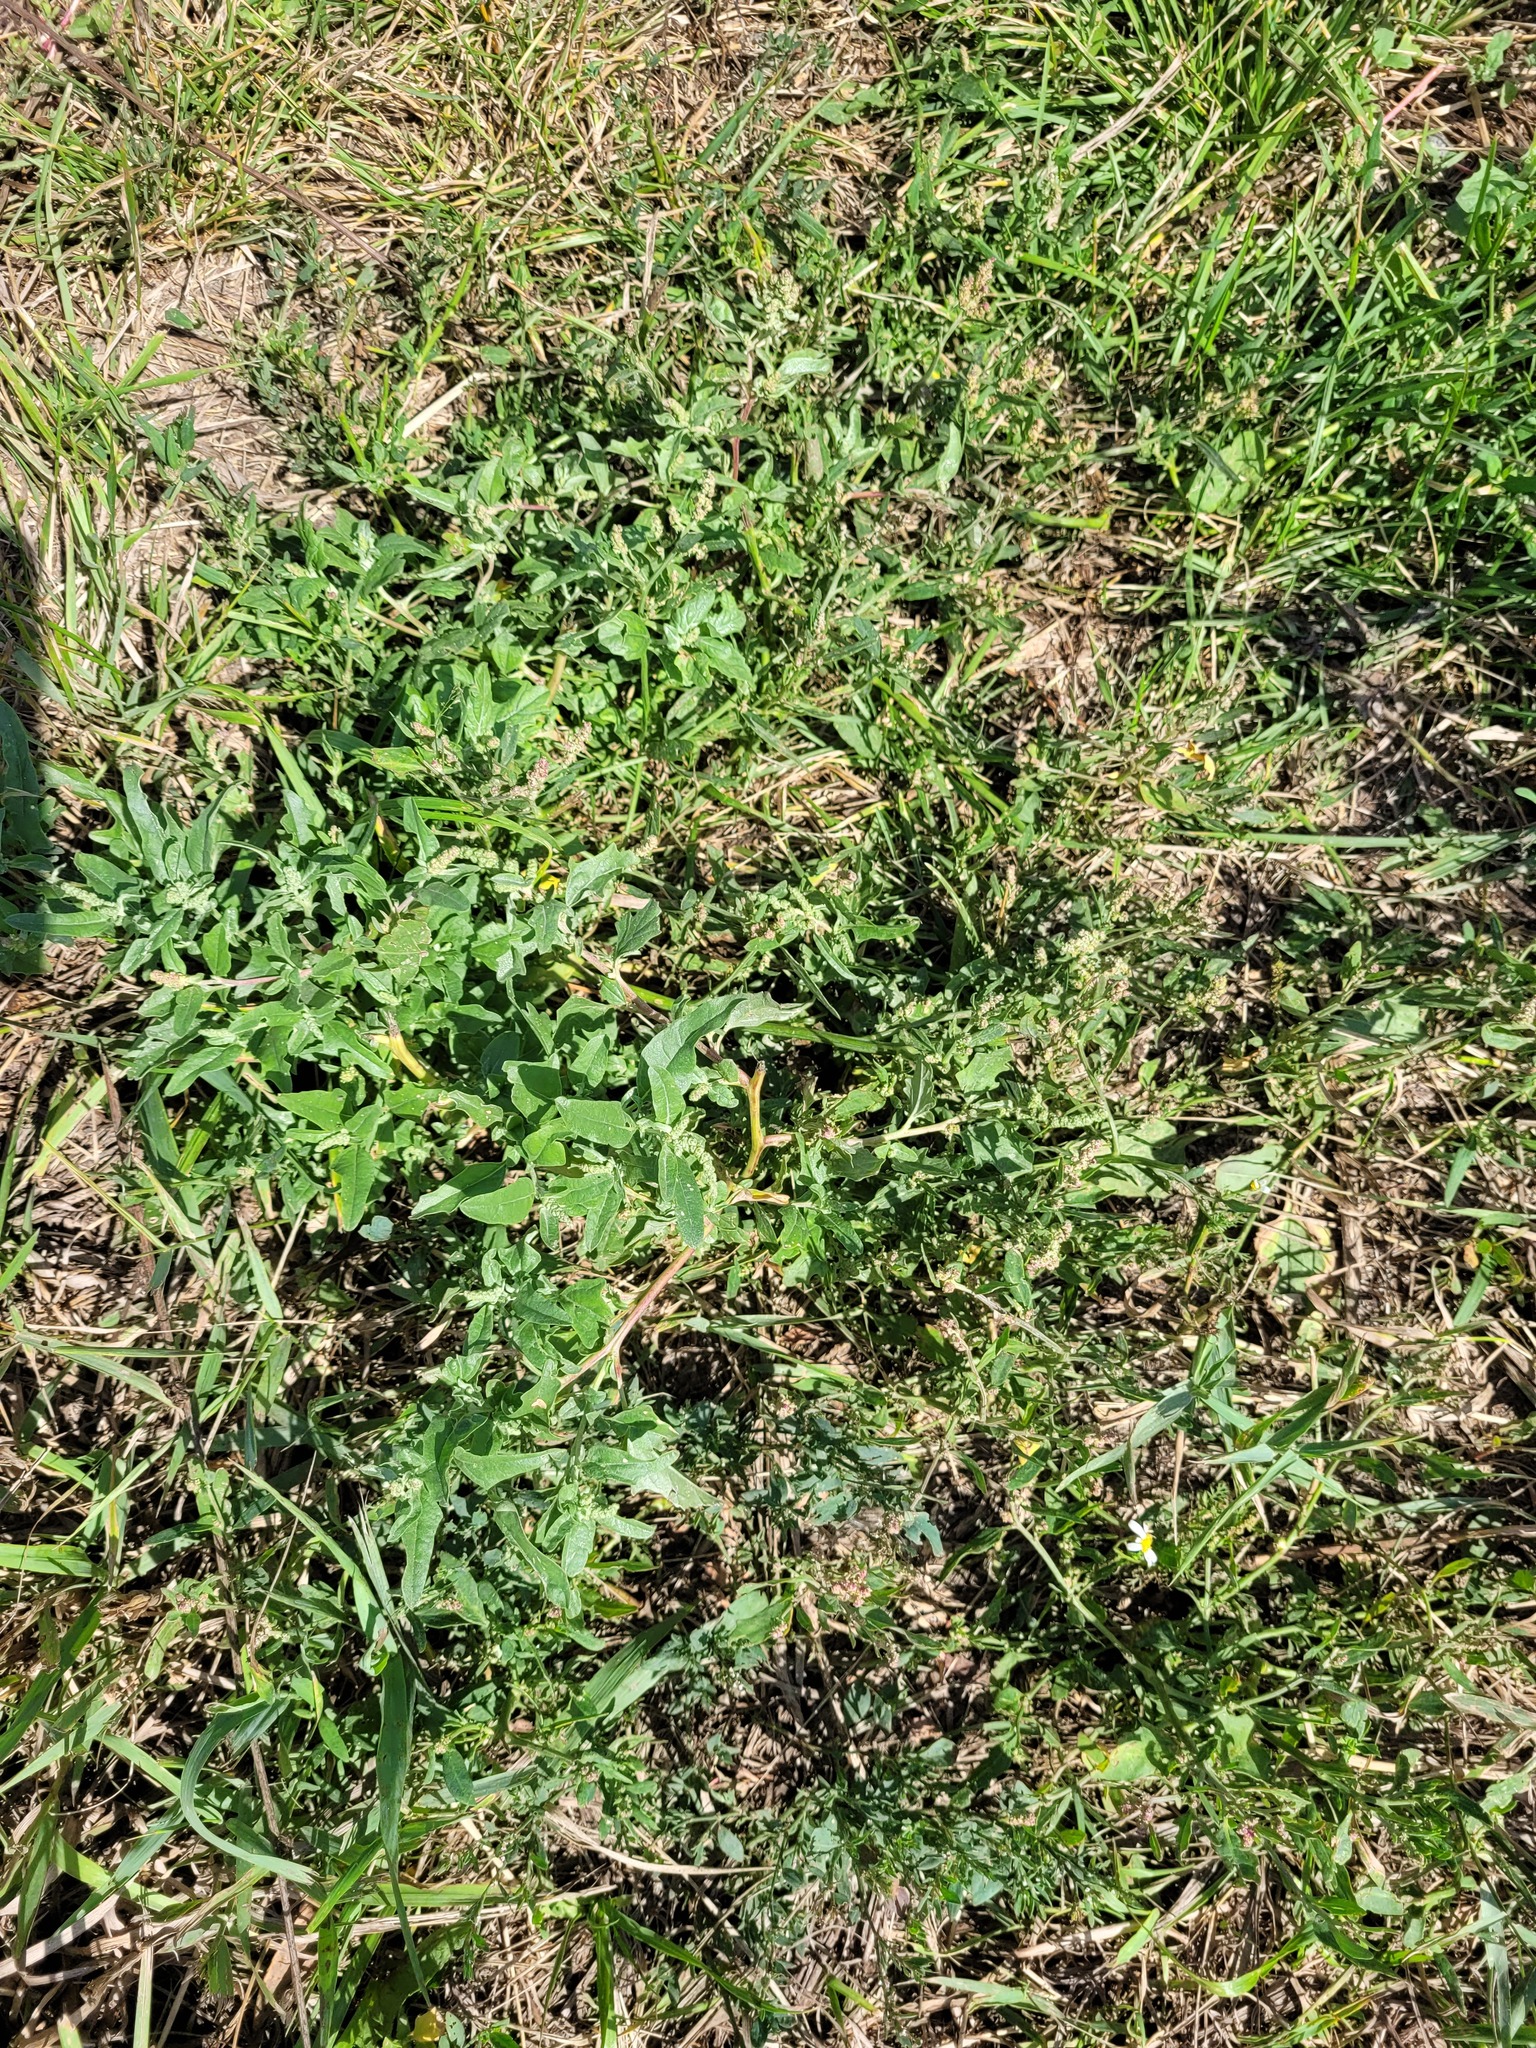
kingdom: Plantae
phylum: Tracheophyta
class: Magnoliopsida
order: Caryophyllales
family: Amaranthaceae
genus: Atriplex
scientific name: Atriplex tatarica
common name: Tatarian orache
